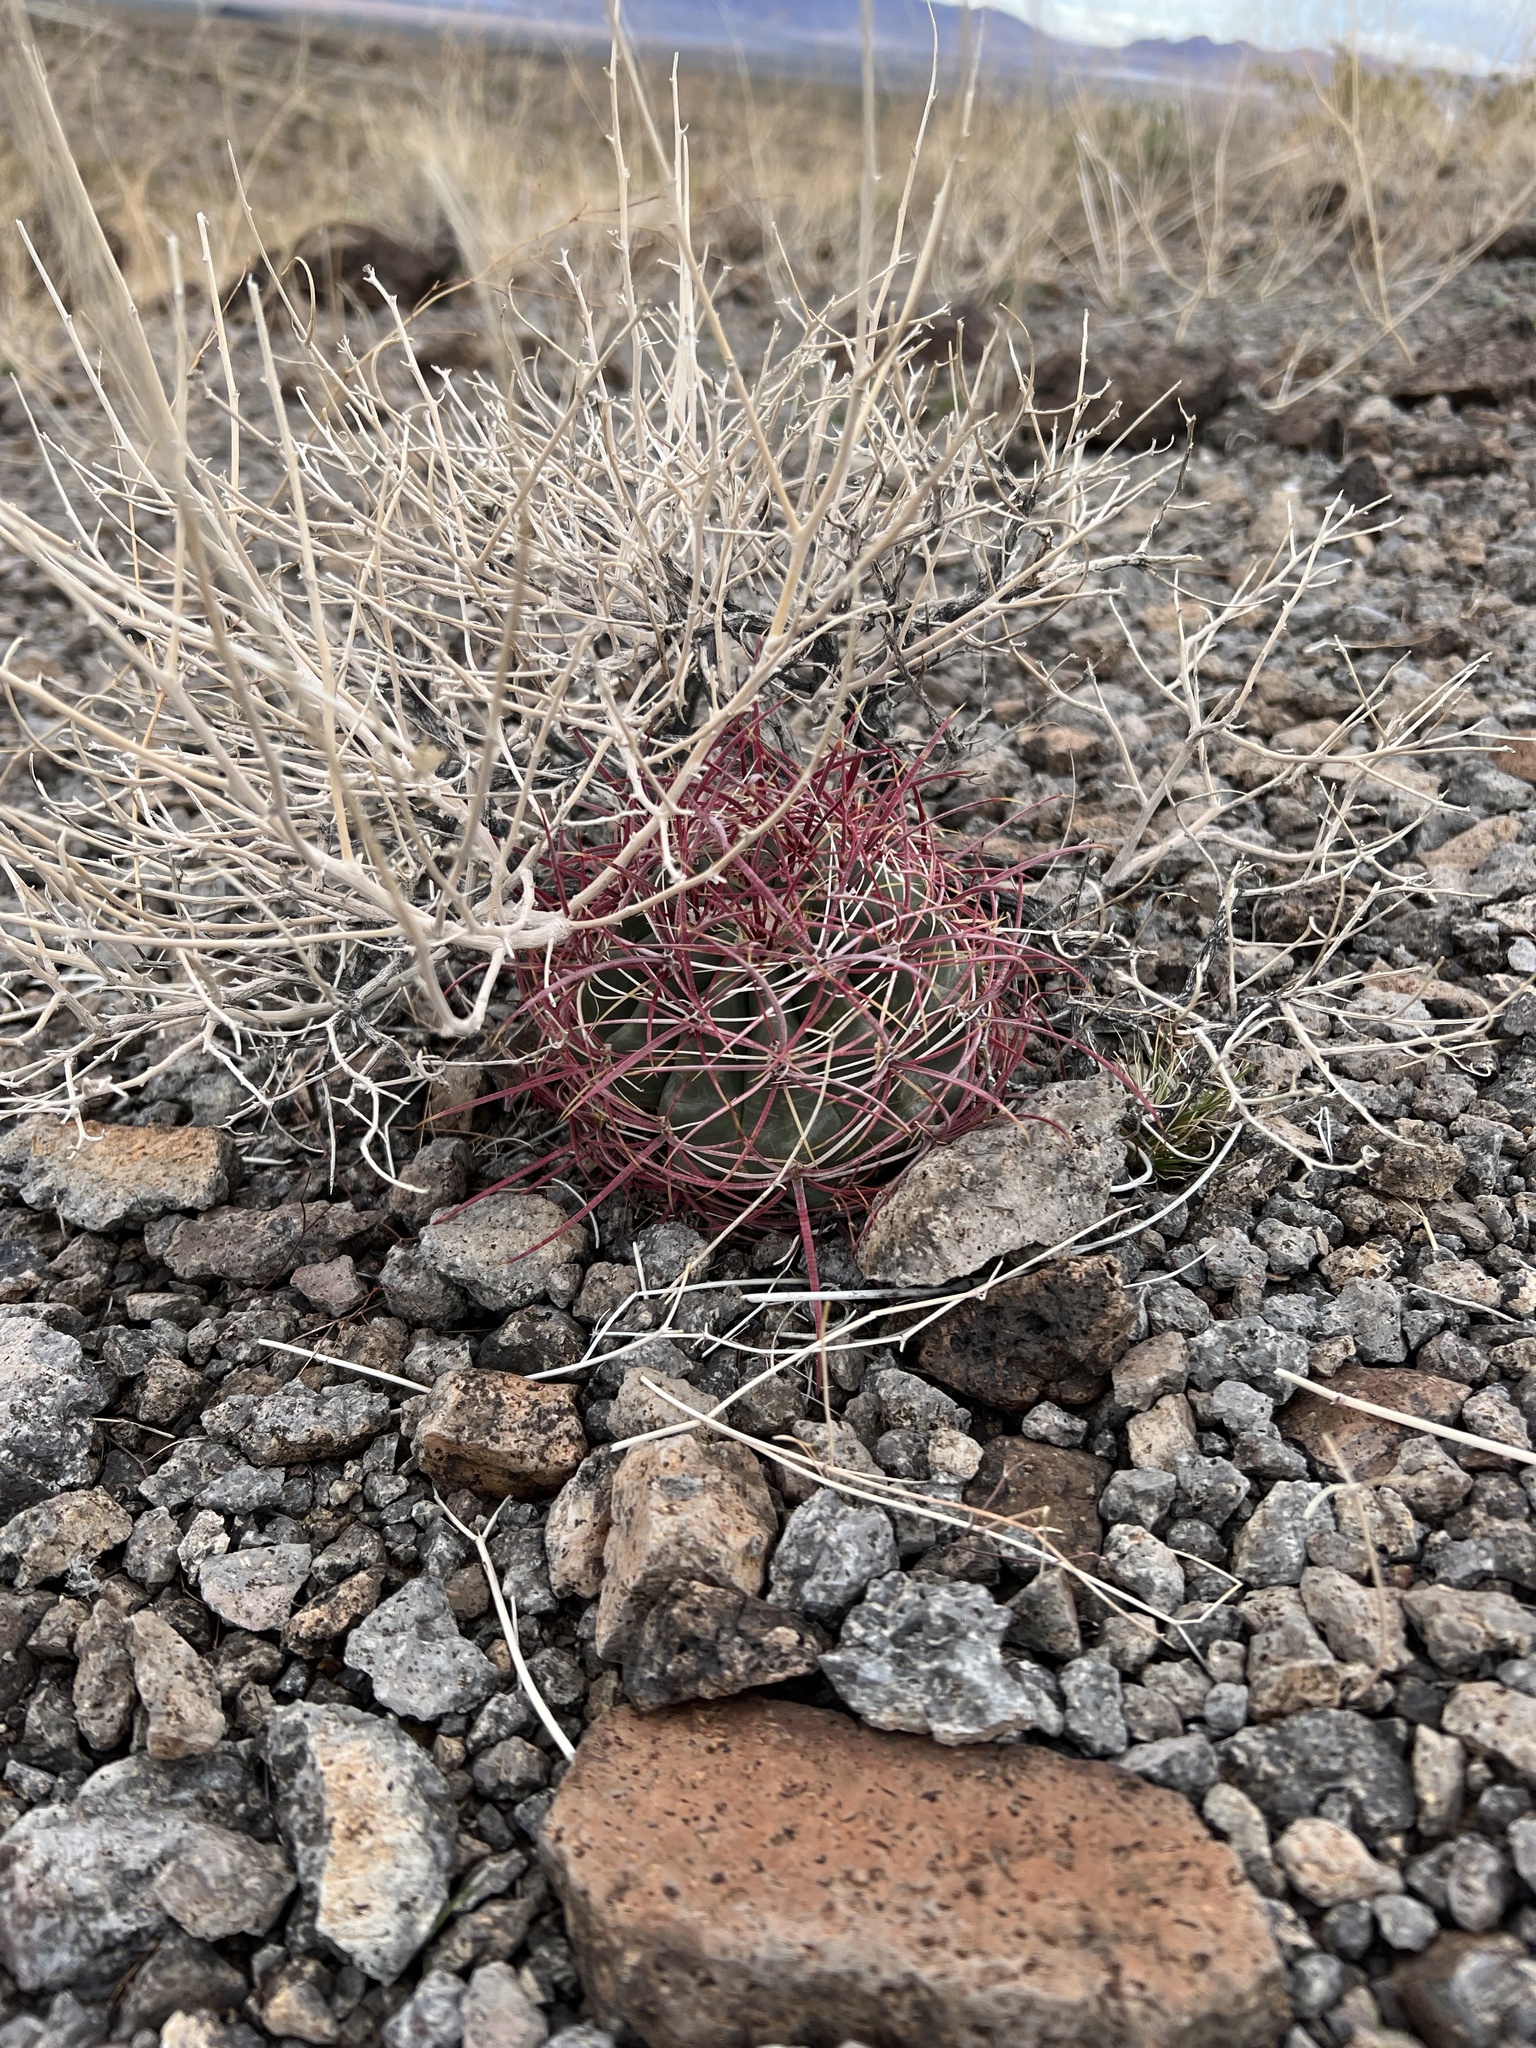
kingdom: Plantae
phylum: Tracheophyta
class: Magnoliopsida
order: Caryophyllales
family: Cactaceae
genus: Ferocactus
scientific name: Ferocactus cylindraceus
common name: California barrel cactus
